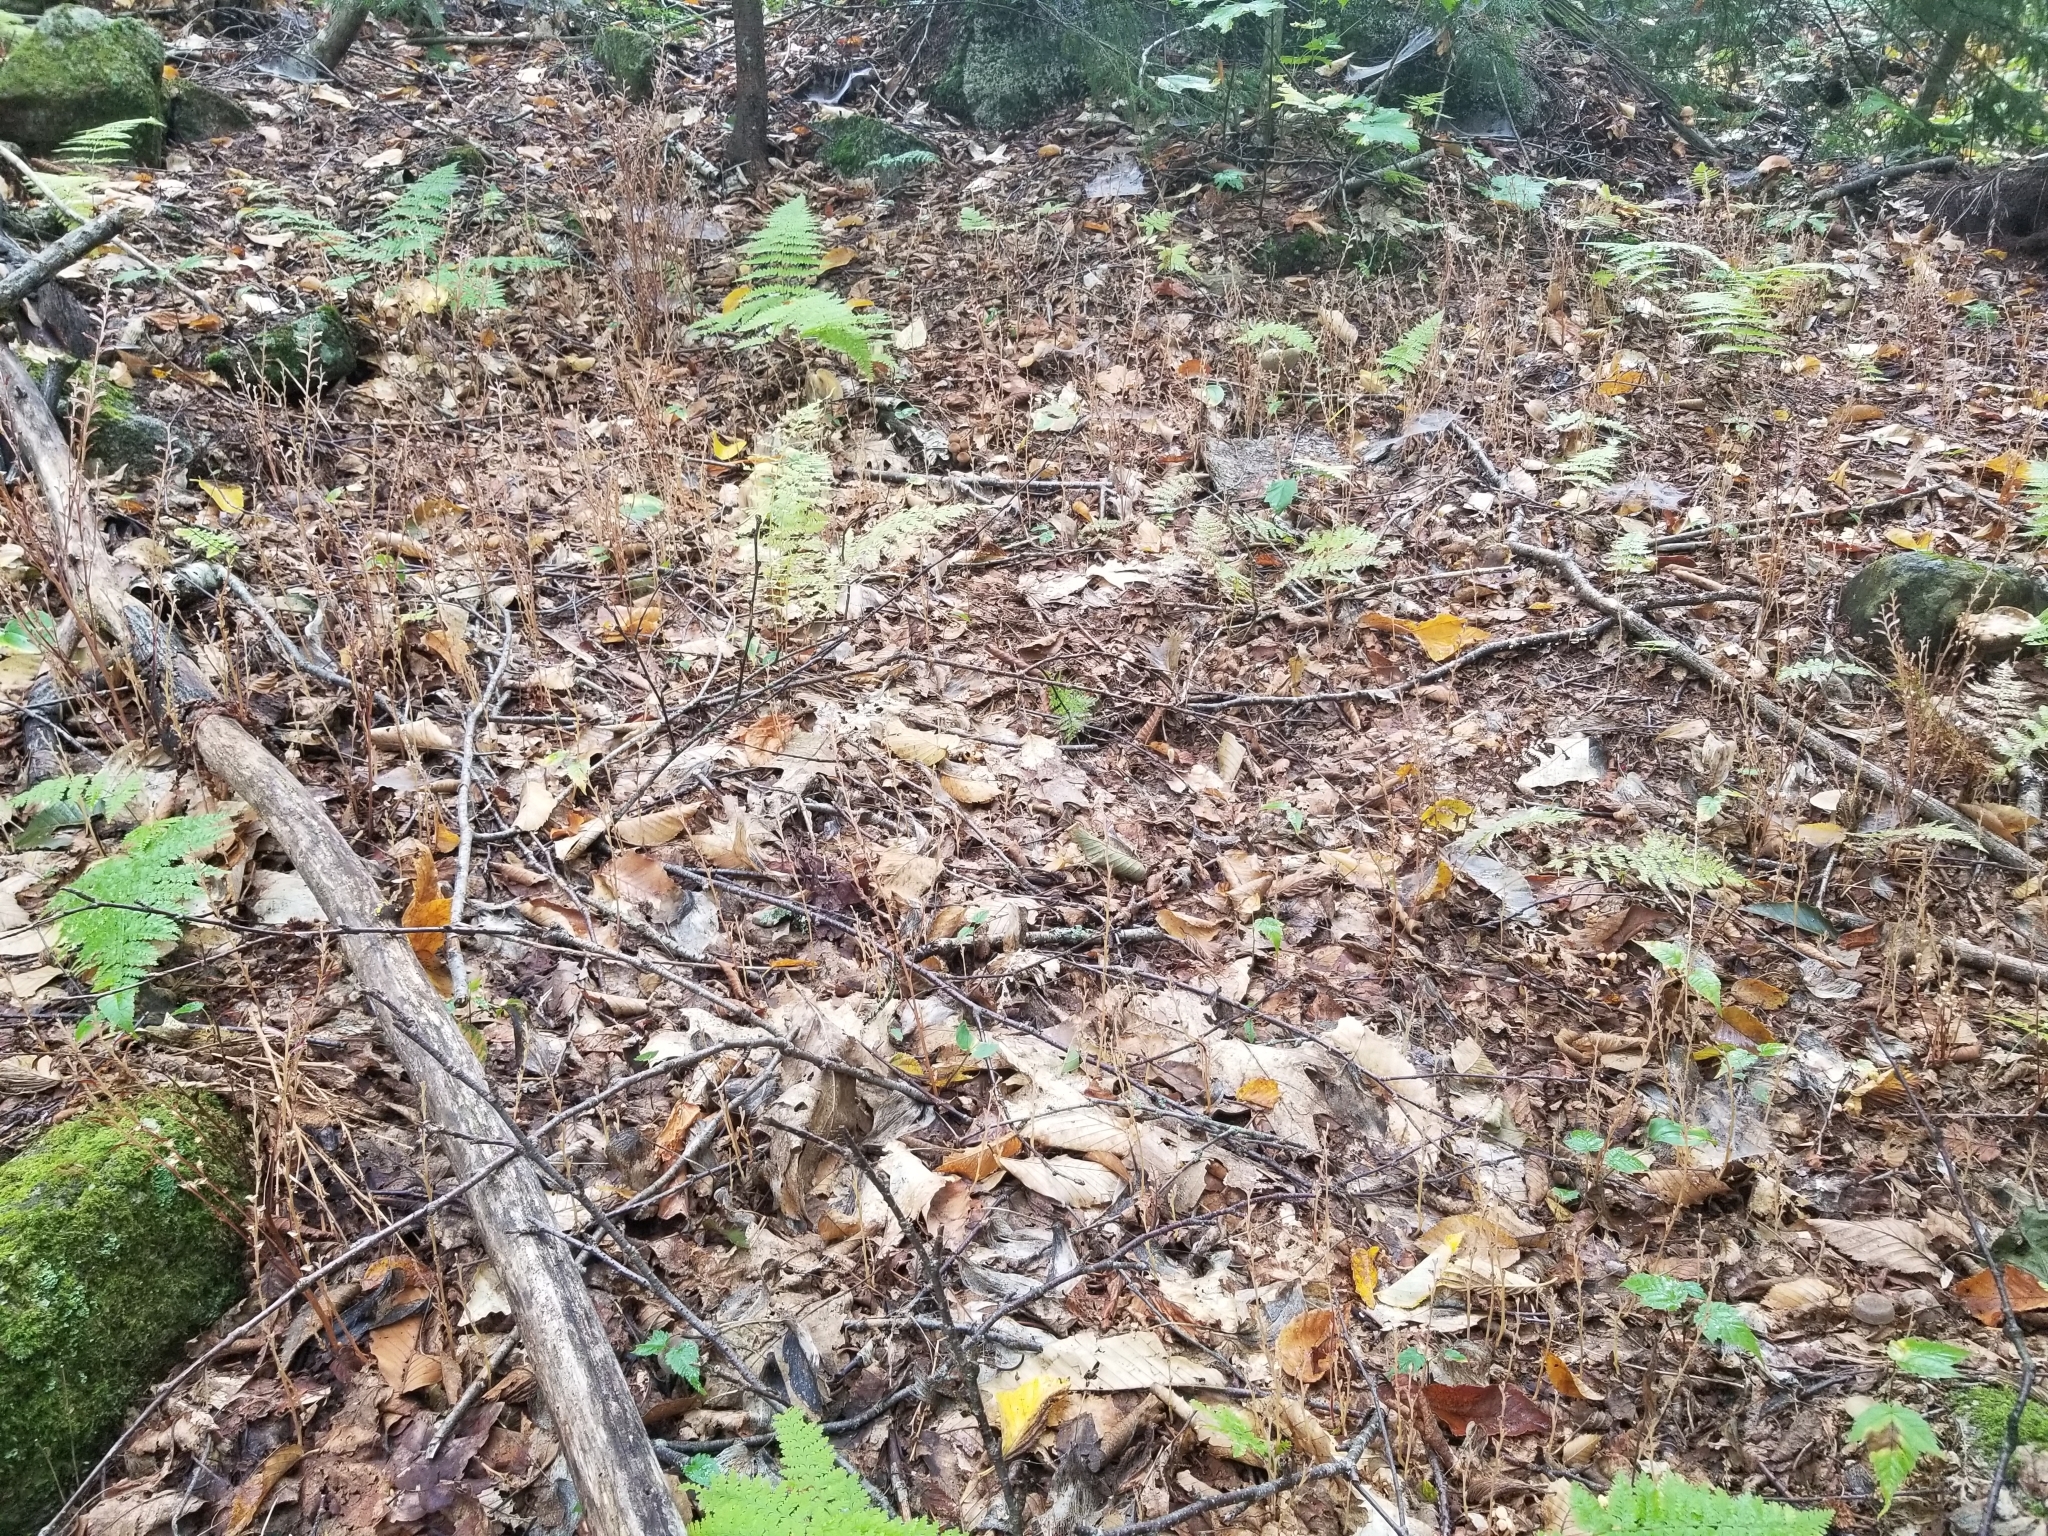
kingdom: Plantae
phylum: Tracheophyta
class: Magnoliopsida
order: Lamiales
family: Orobanchaceae
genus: Epifagus
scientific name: Epifagus virginiana
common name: Beechdrops
